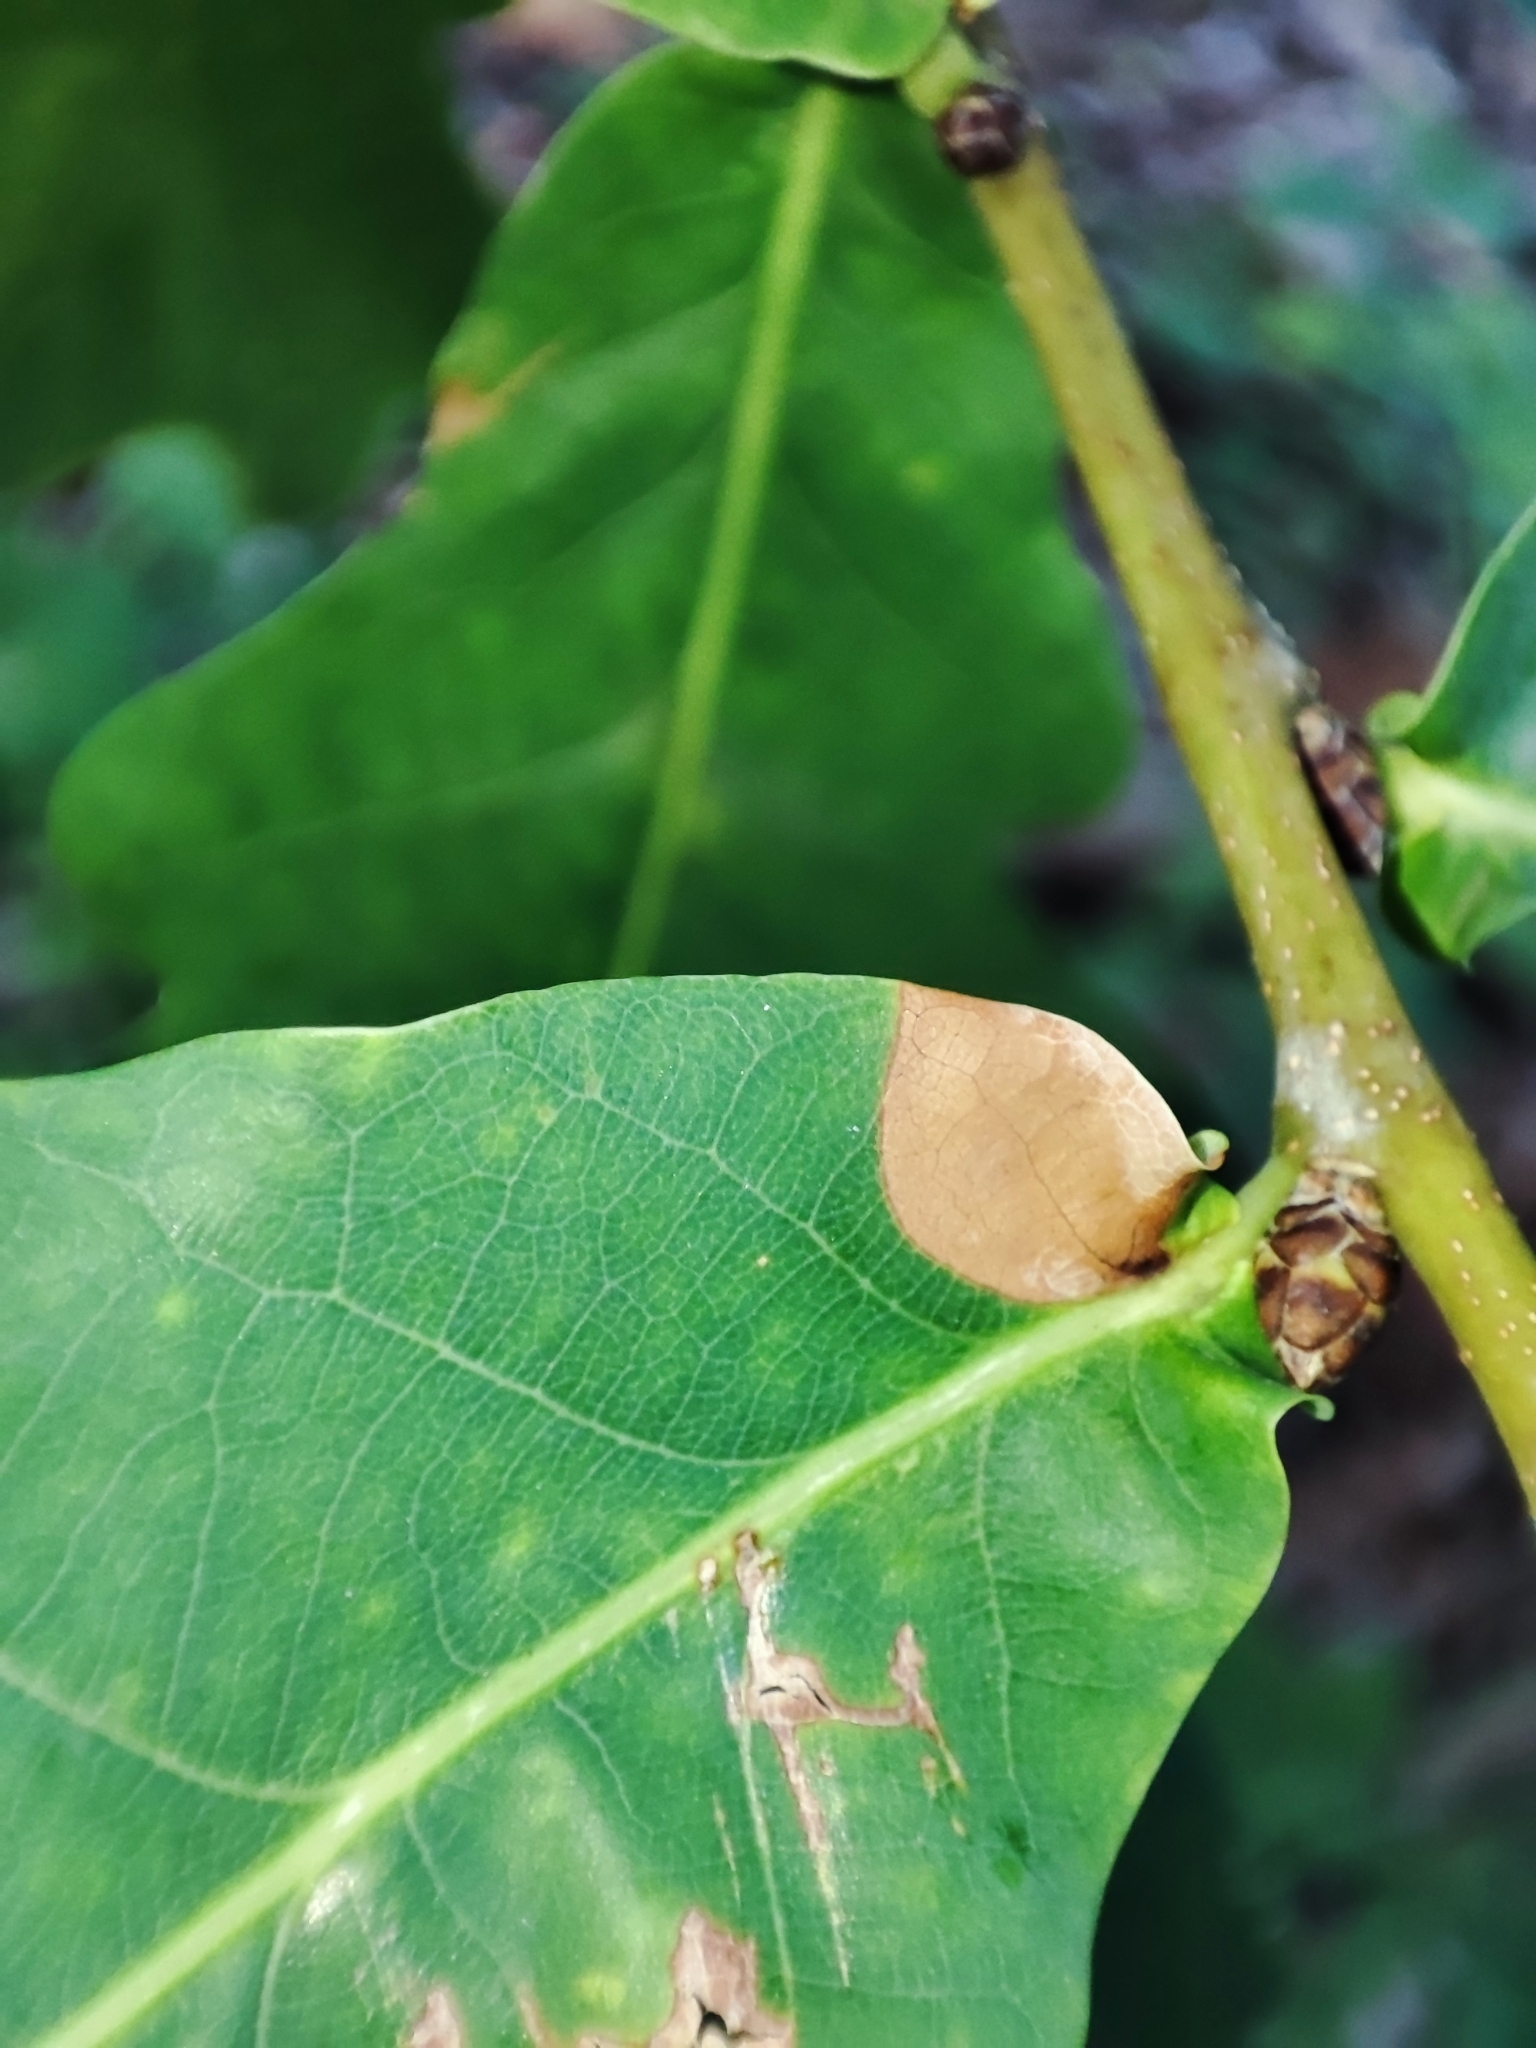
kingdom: Plantae
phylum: Tracheophyta
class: Magnoliopsida
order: Fagales
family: Fagaceae
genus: Quercus
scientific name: Quercus robur
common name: Pedunculate oak
